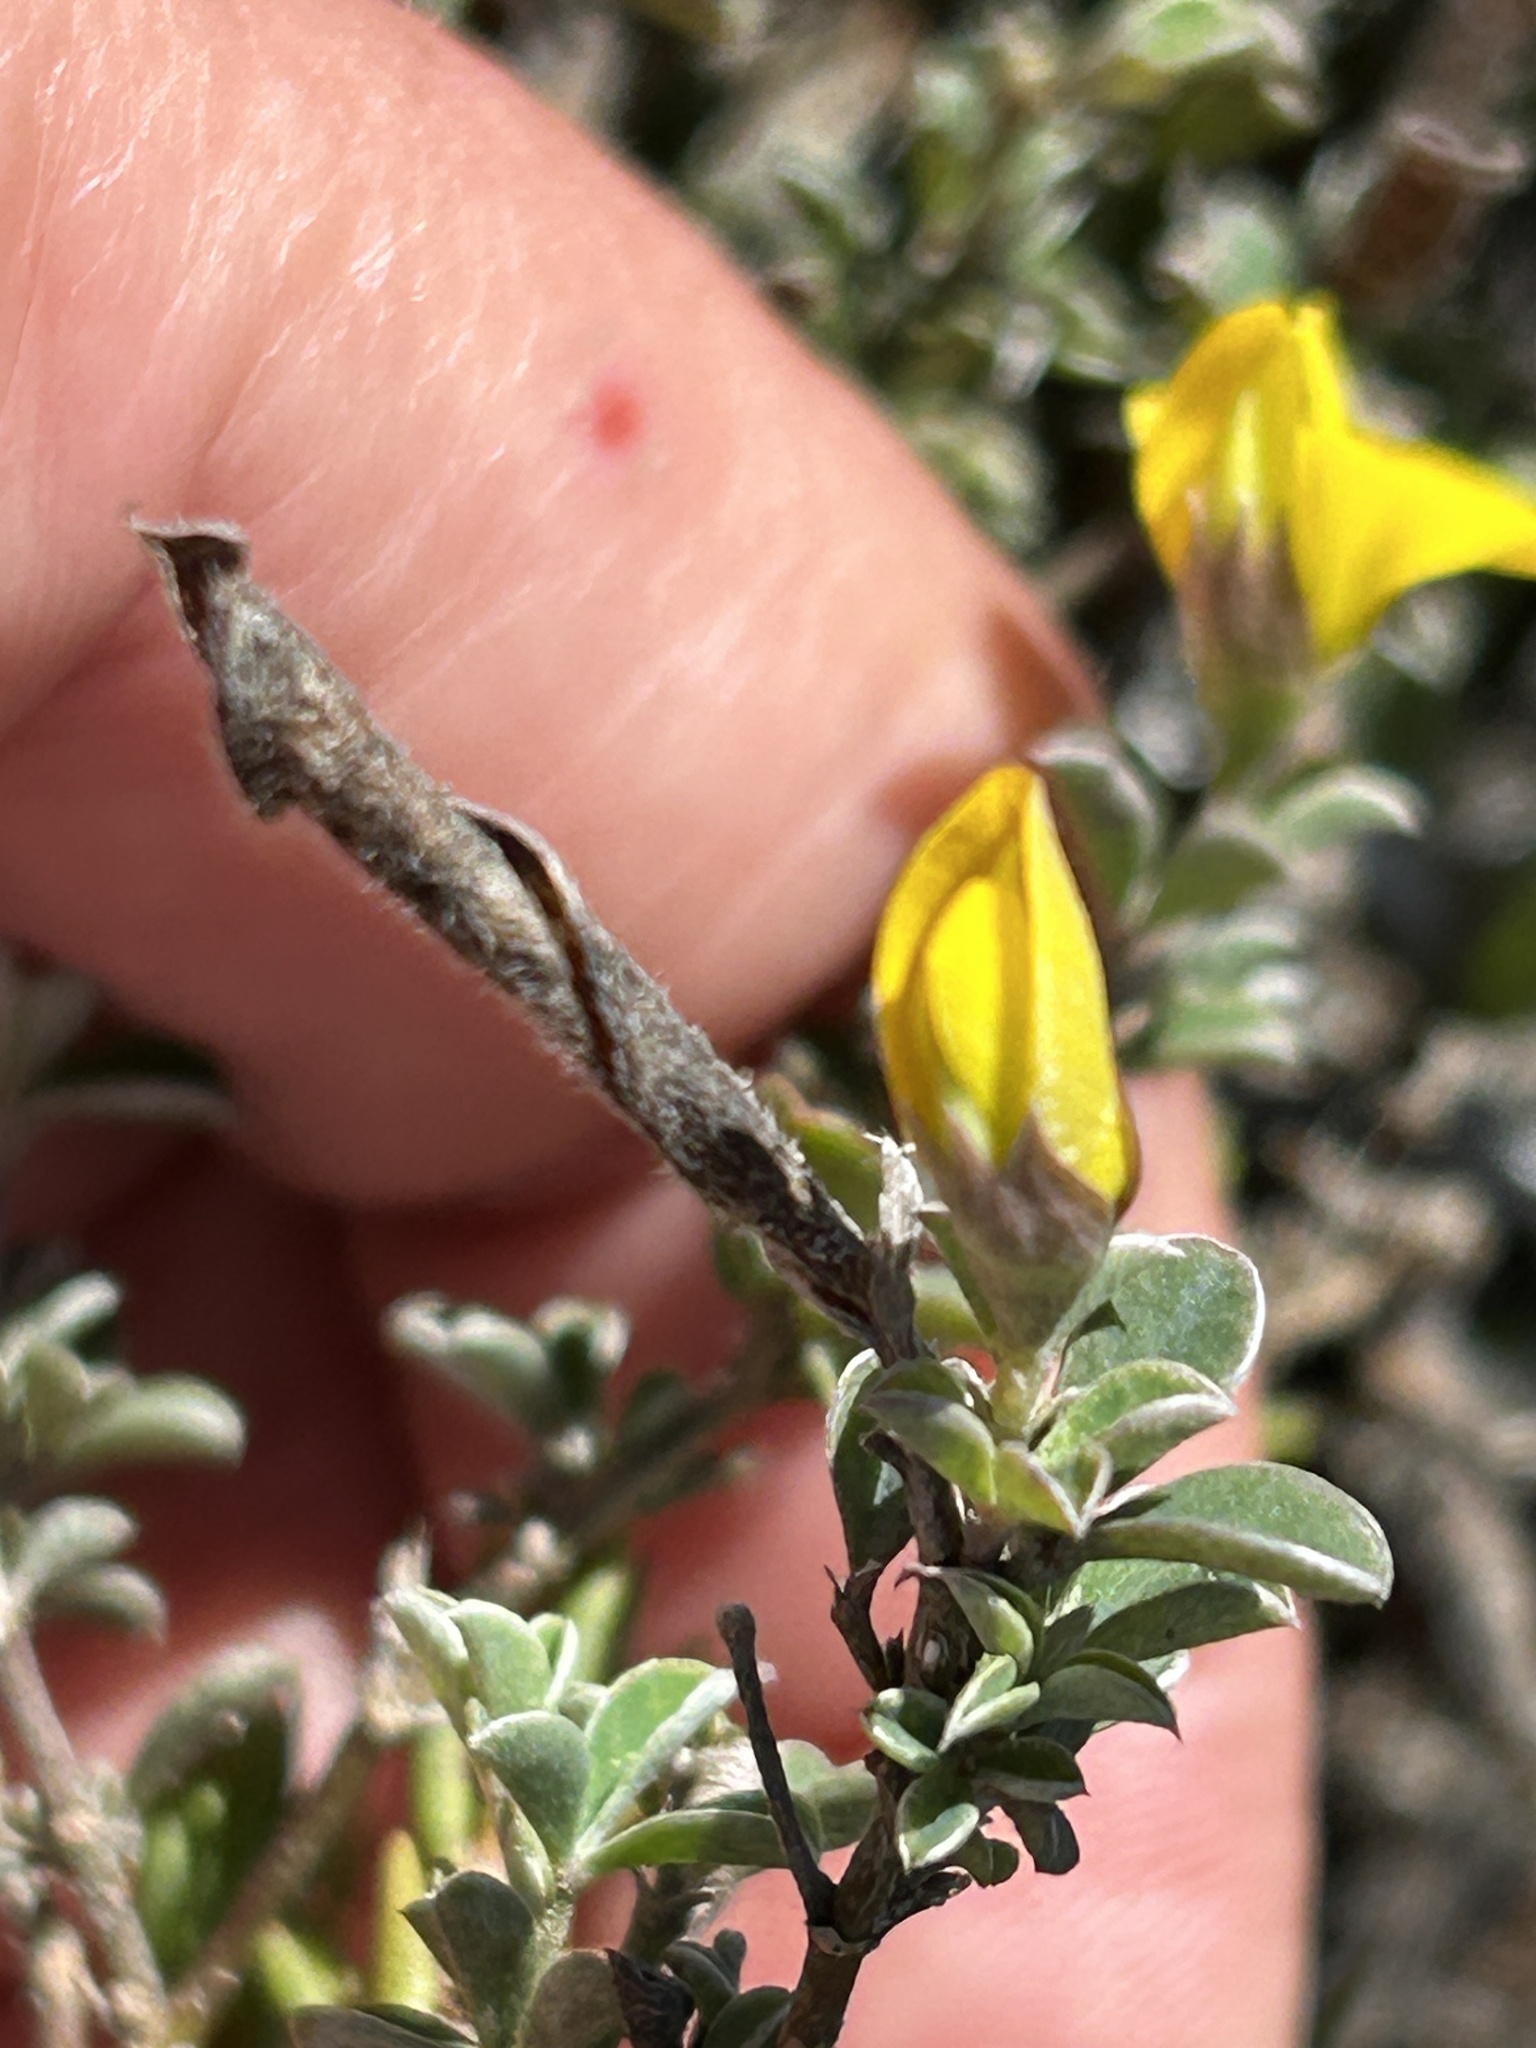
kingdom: Plantae
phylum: Tracheophyta
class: Magnoliopsida
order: Fabales
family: Fabaceae
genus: Argyrolobium
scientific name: Argyrolobium harmsianum
